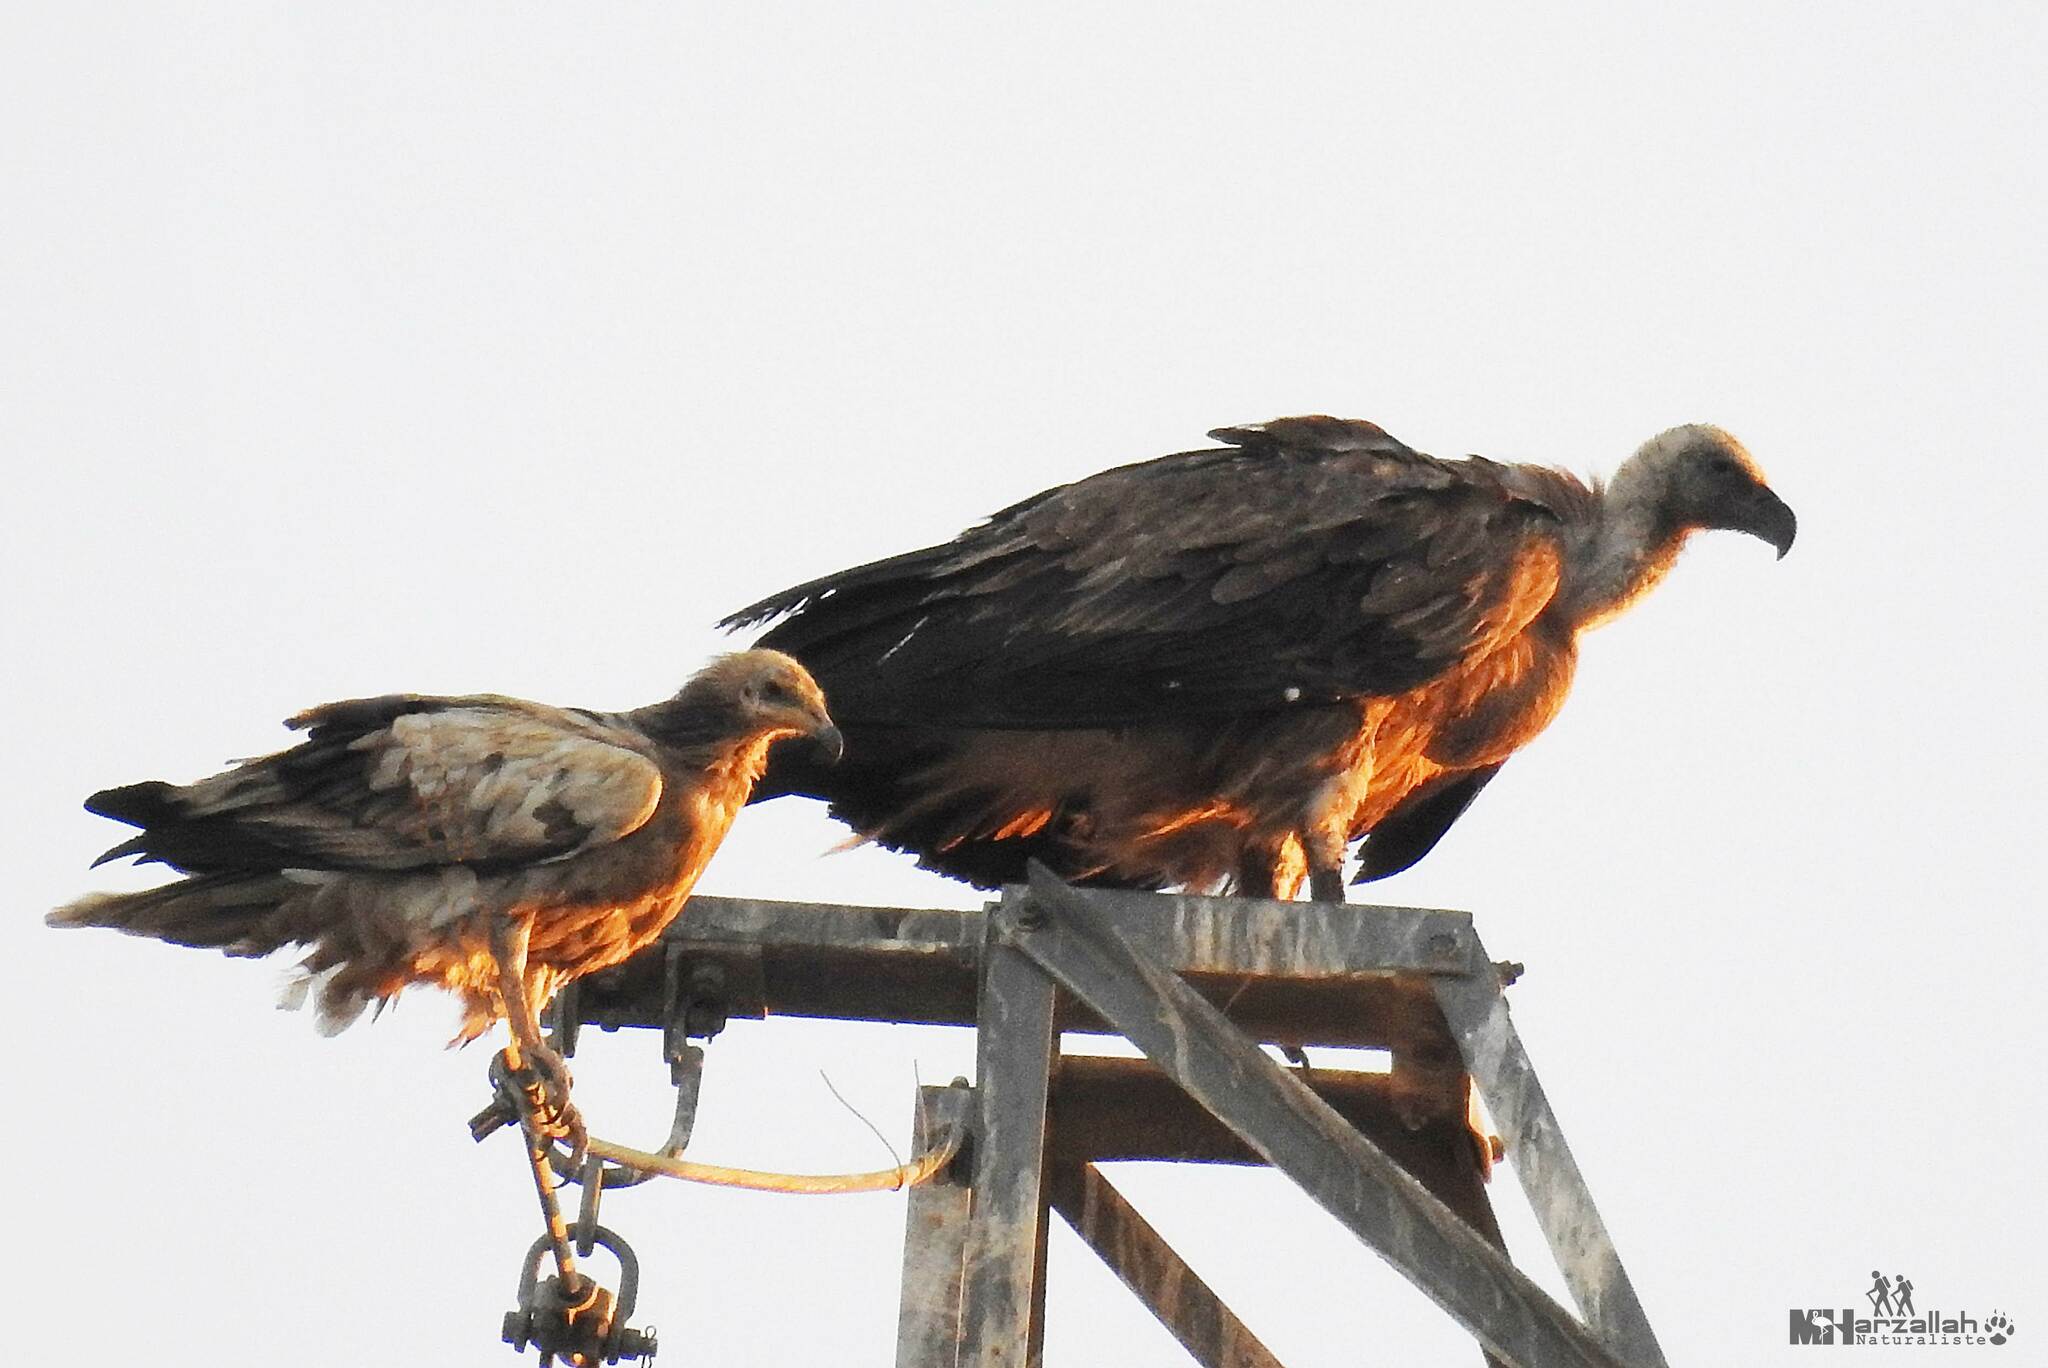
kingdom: Animalia
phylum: Chordata
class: Aves
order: Accipitriformes
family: Accipitridae
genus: Gyps
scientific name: Gyps fulvus
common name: Griffon vulture
